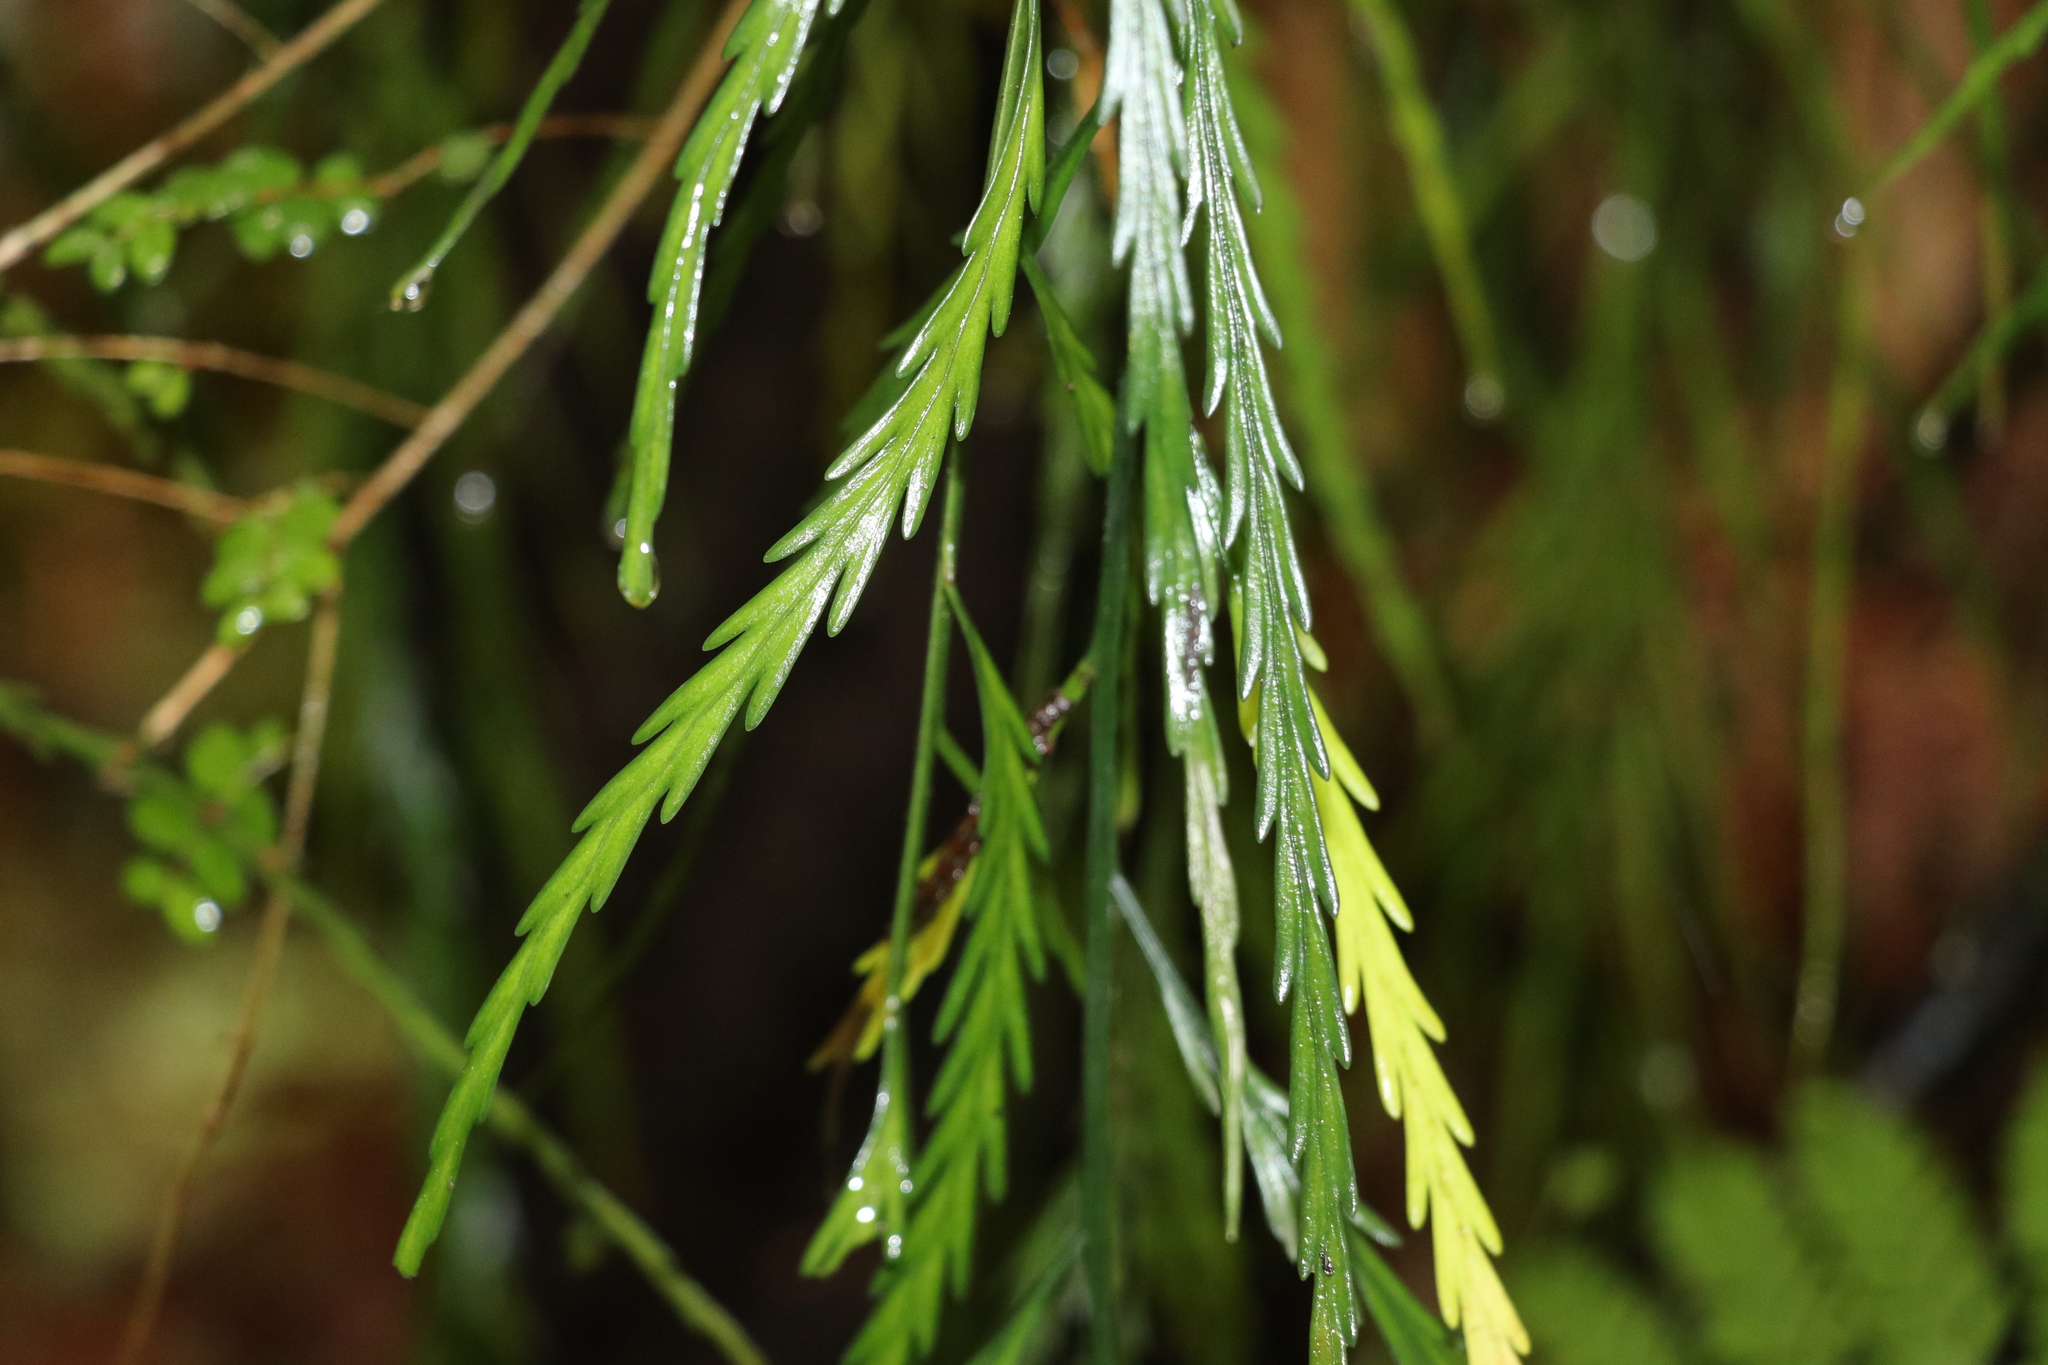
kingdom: Plantae
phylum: Tracheophyta
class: Polypodiopsida
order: Polypodiales
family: Aspleniaceae
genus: Asplenium
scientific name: Asplenium flaccidum
